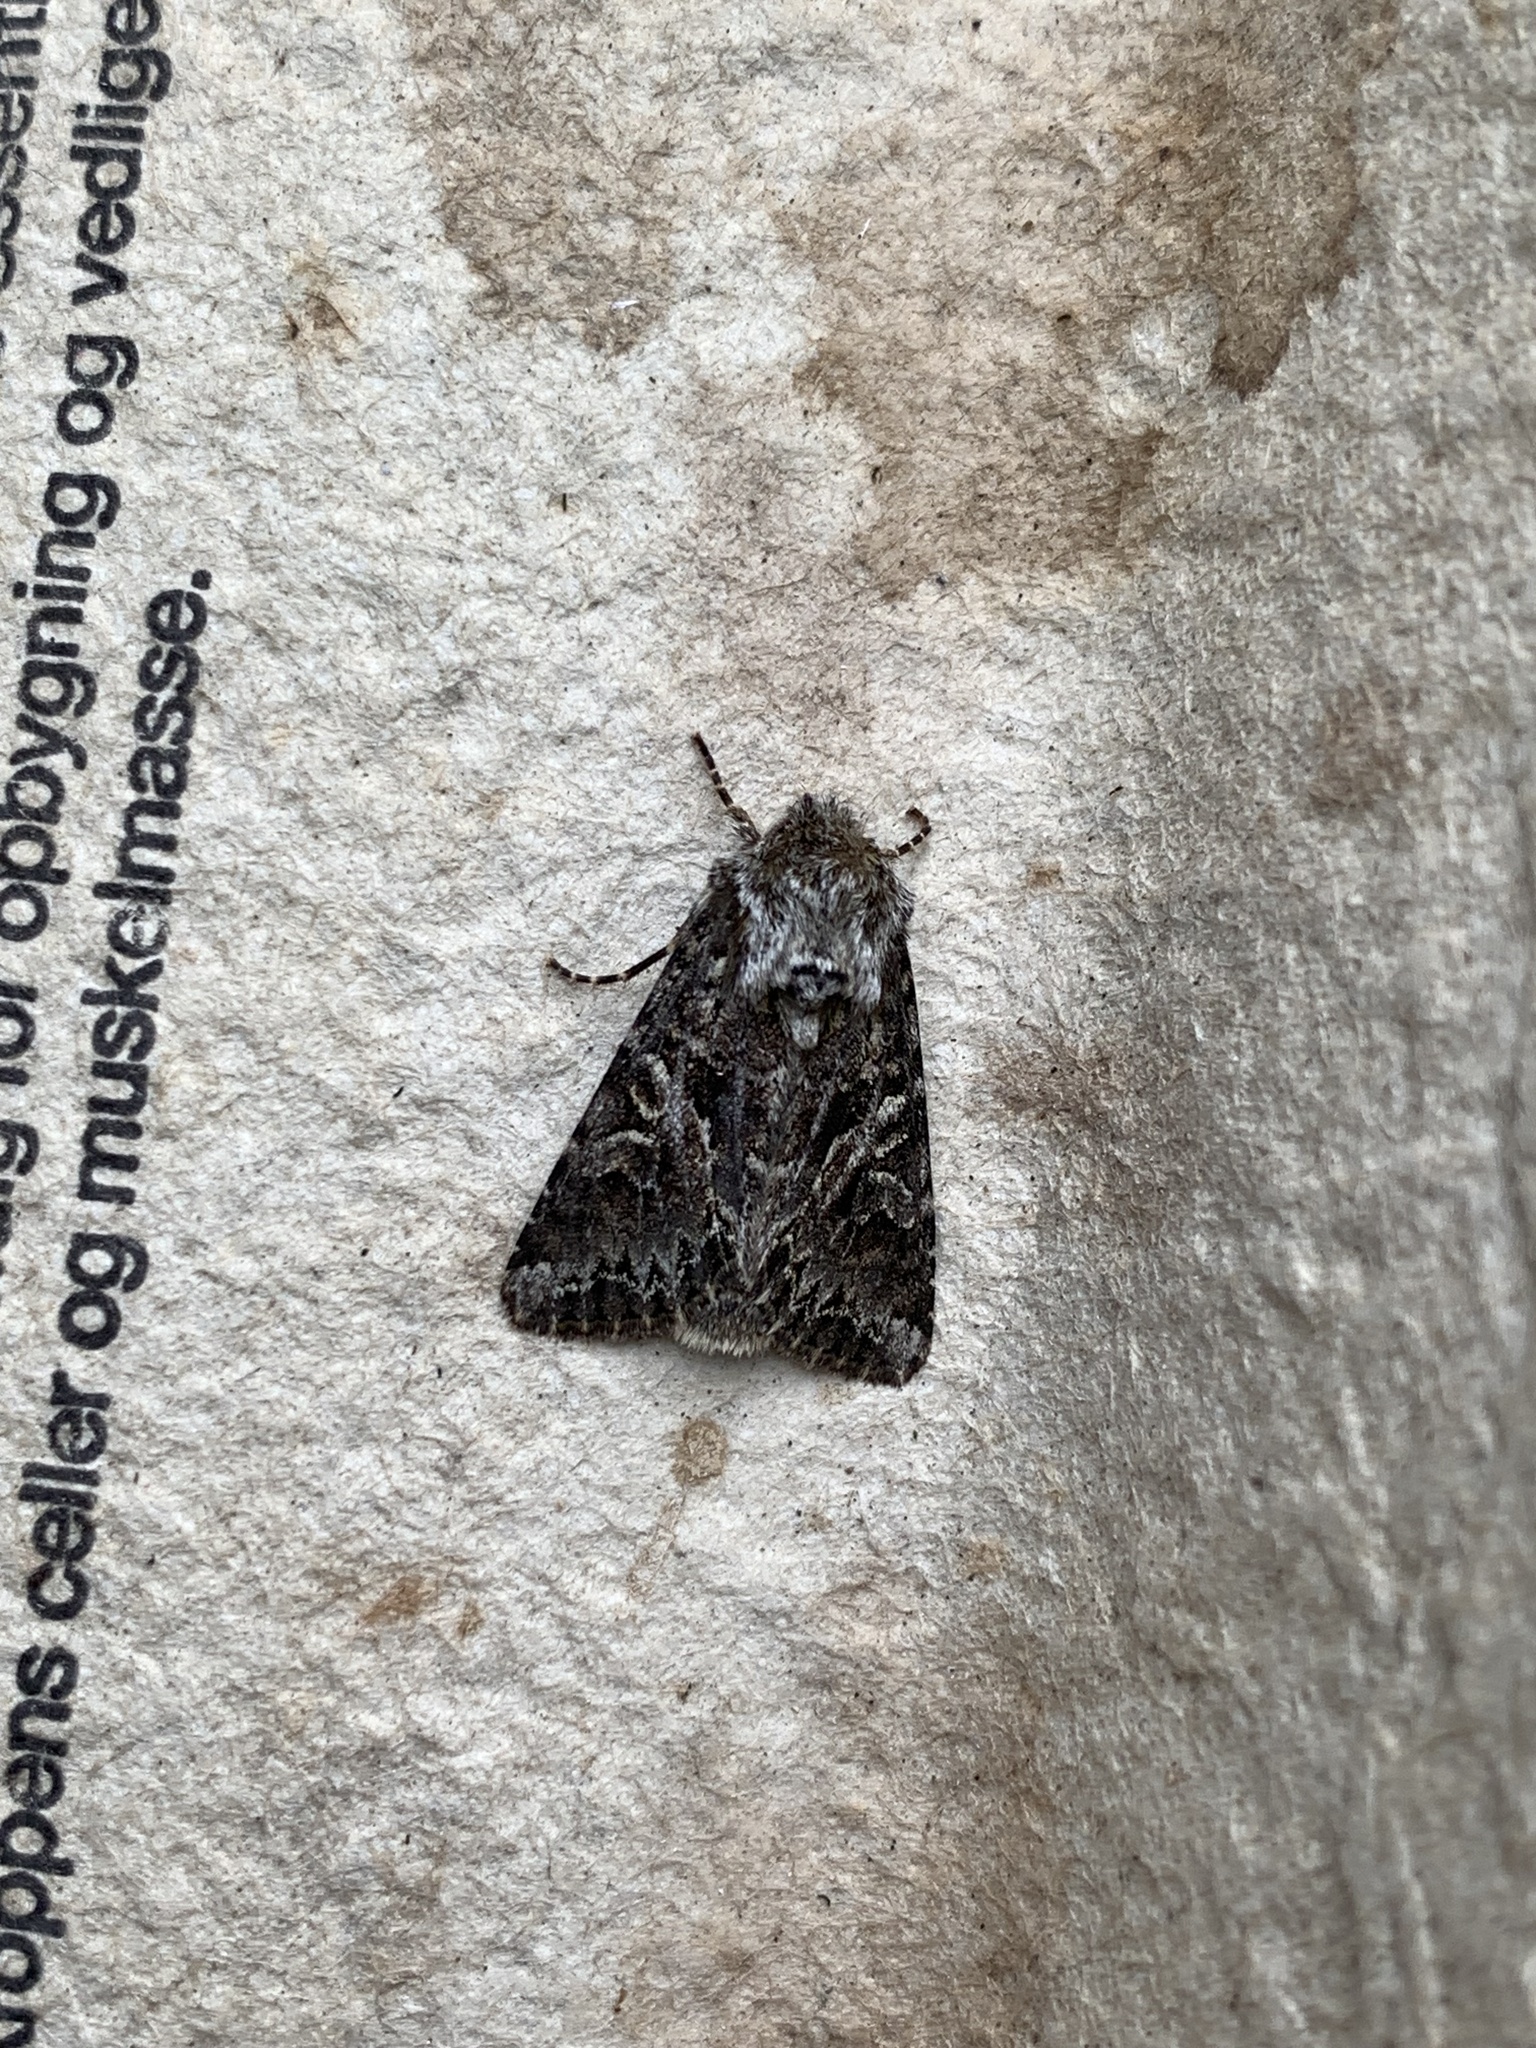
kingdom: Animalia
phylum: Arthropoda
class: Insecta
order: Lepidoptera
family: Noctuidae
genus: Hada
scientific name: Hada plebeja
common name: Shears
